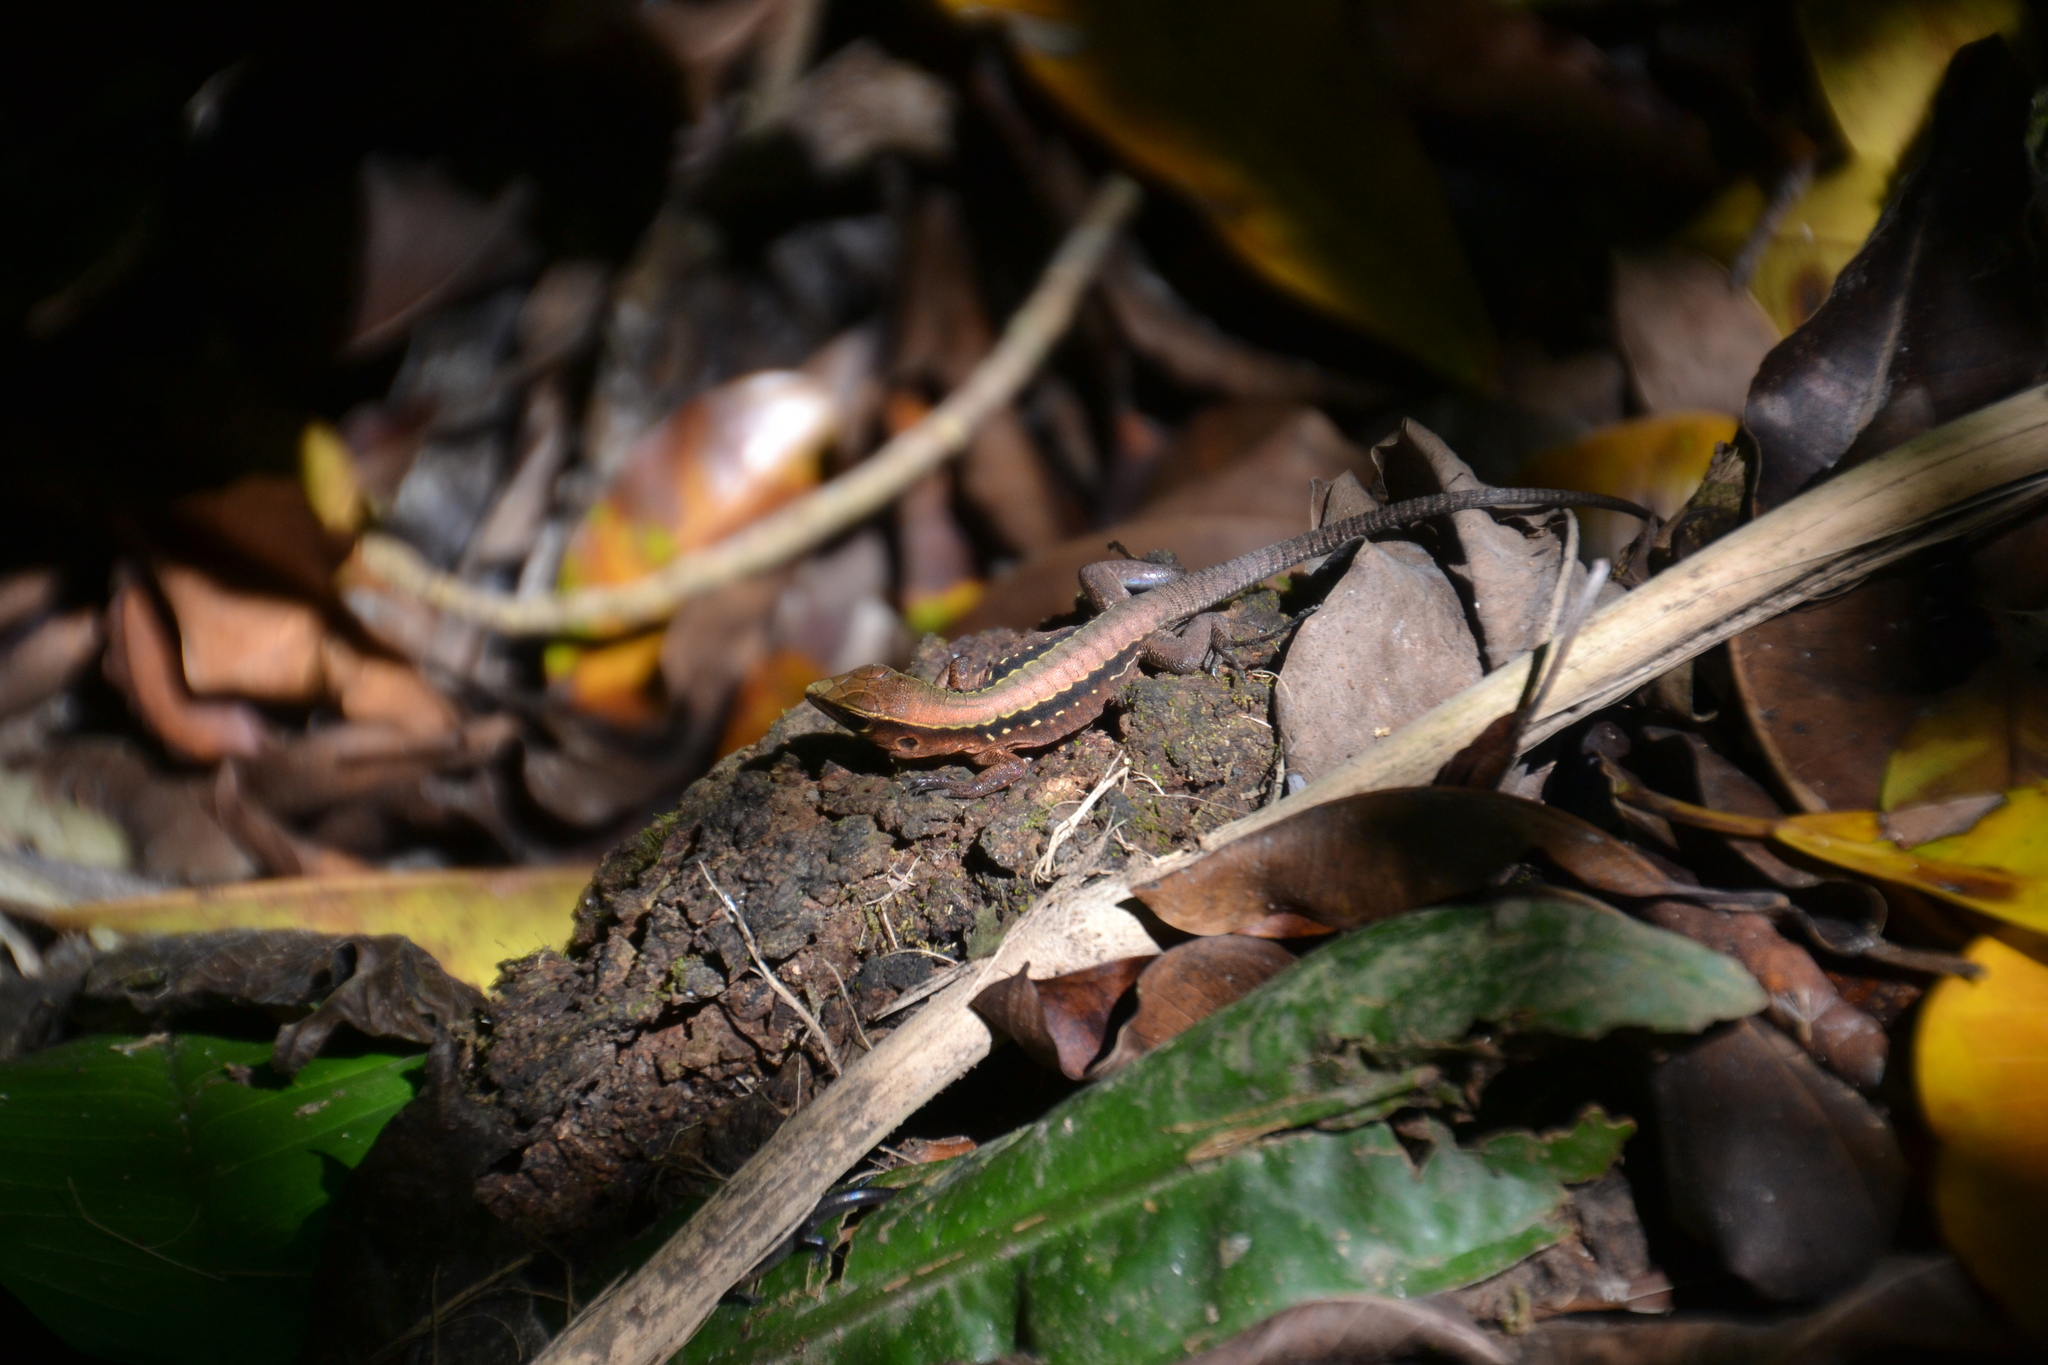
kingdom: Animalia
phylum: Chordata
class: Squamata
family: Teiidae
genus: Holcosus
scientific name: Holcosus leptophrys
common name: Delicate ameiva
